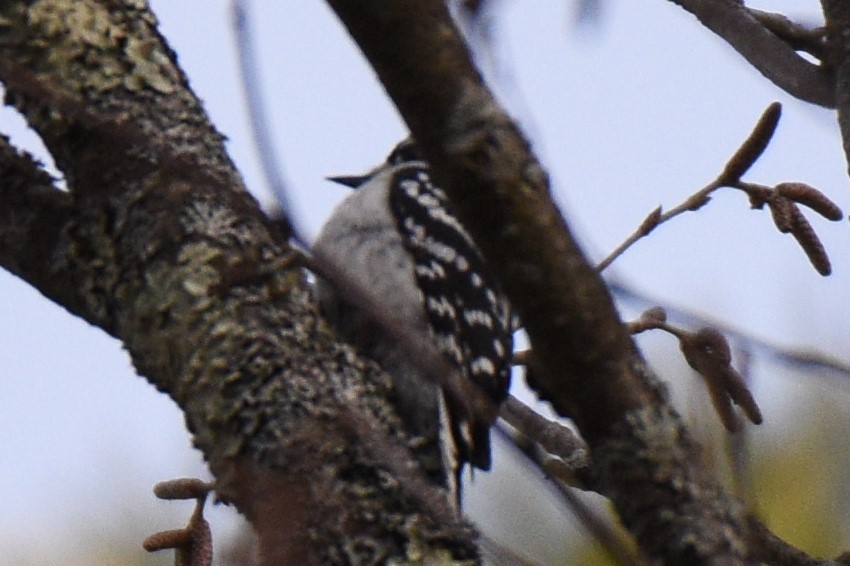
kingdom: Animalia
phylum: Chordata
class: Aves
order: Piciformes
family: Picidae
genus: Dryobates
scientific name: Dryobates pubescens
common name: Downy woodpecker
